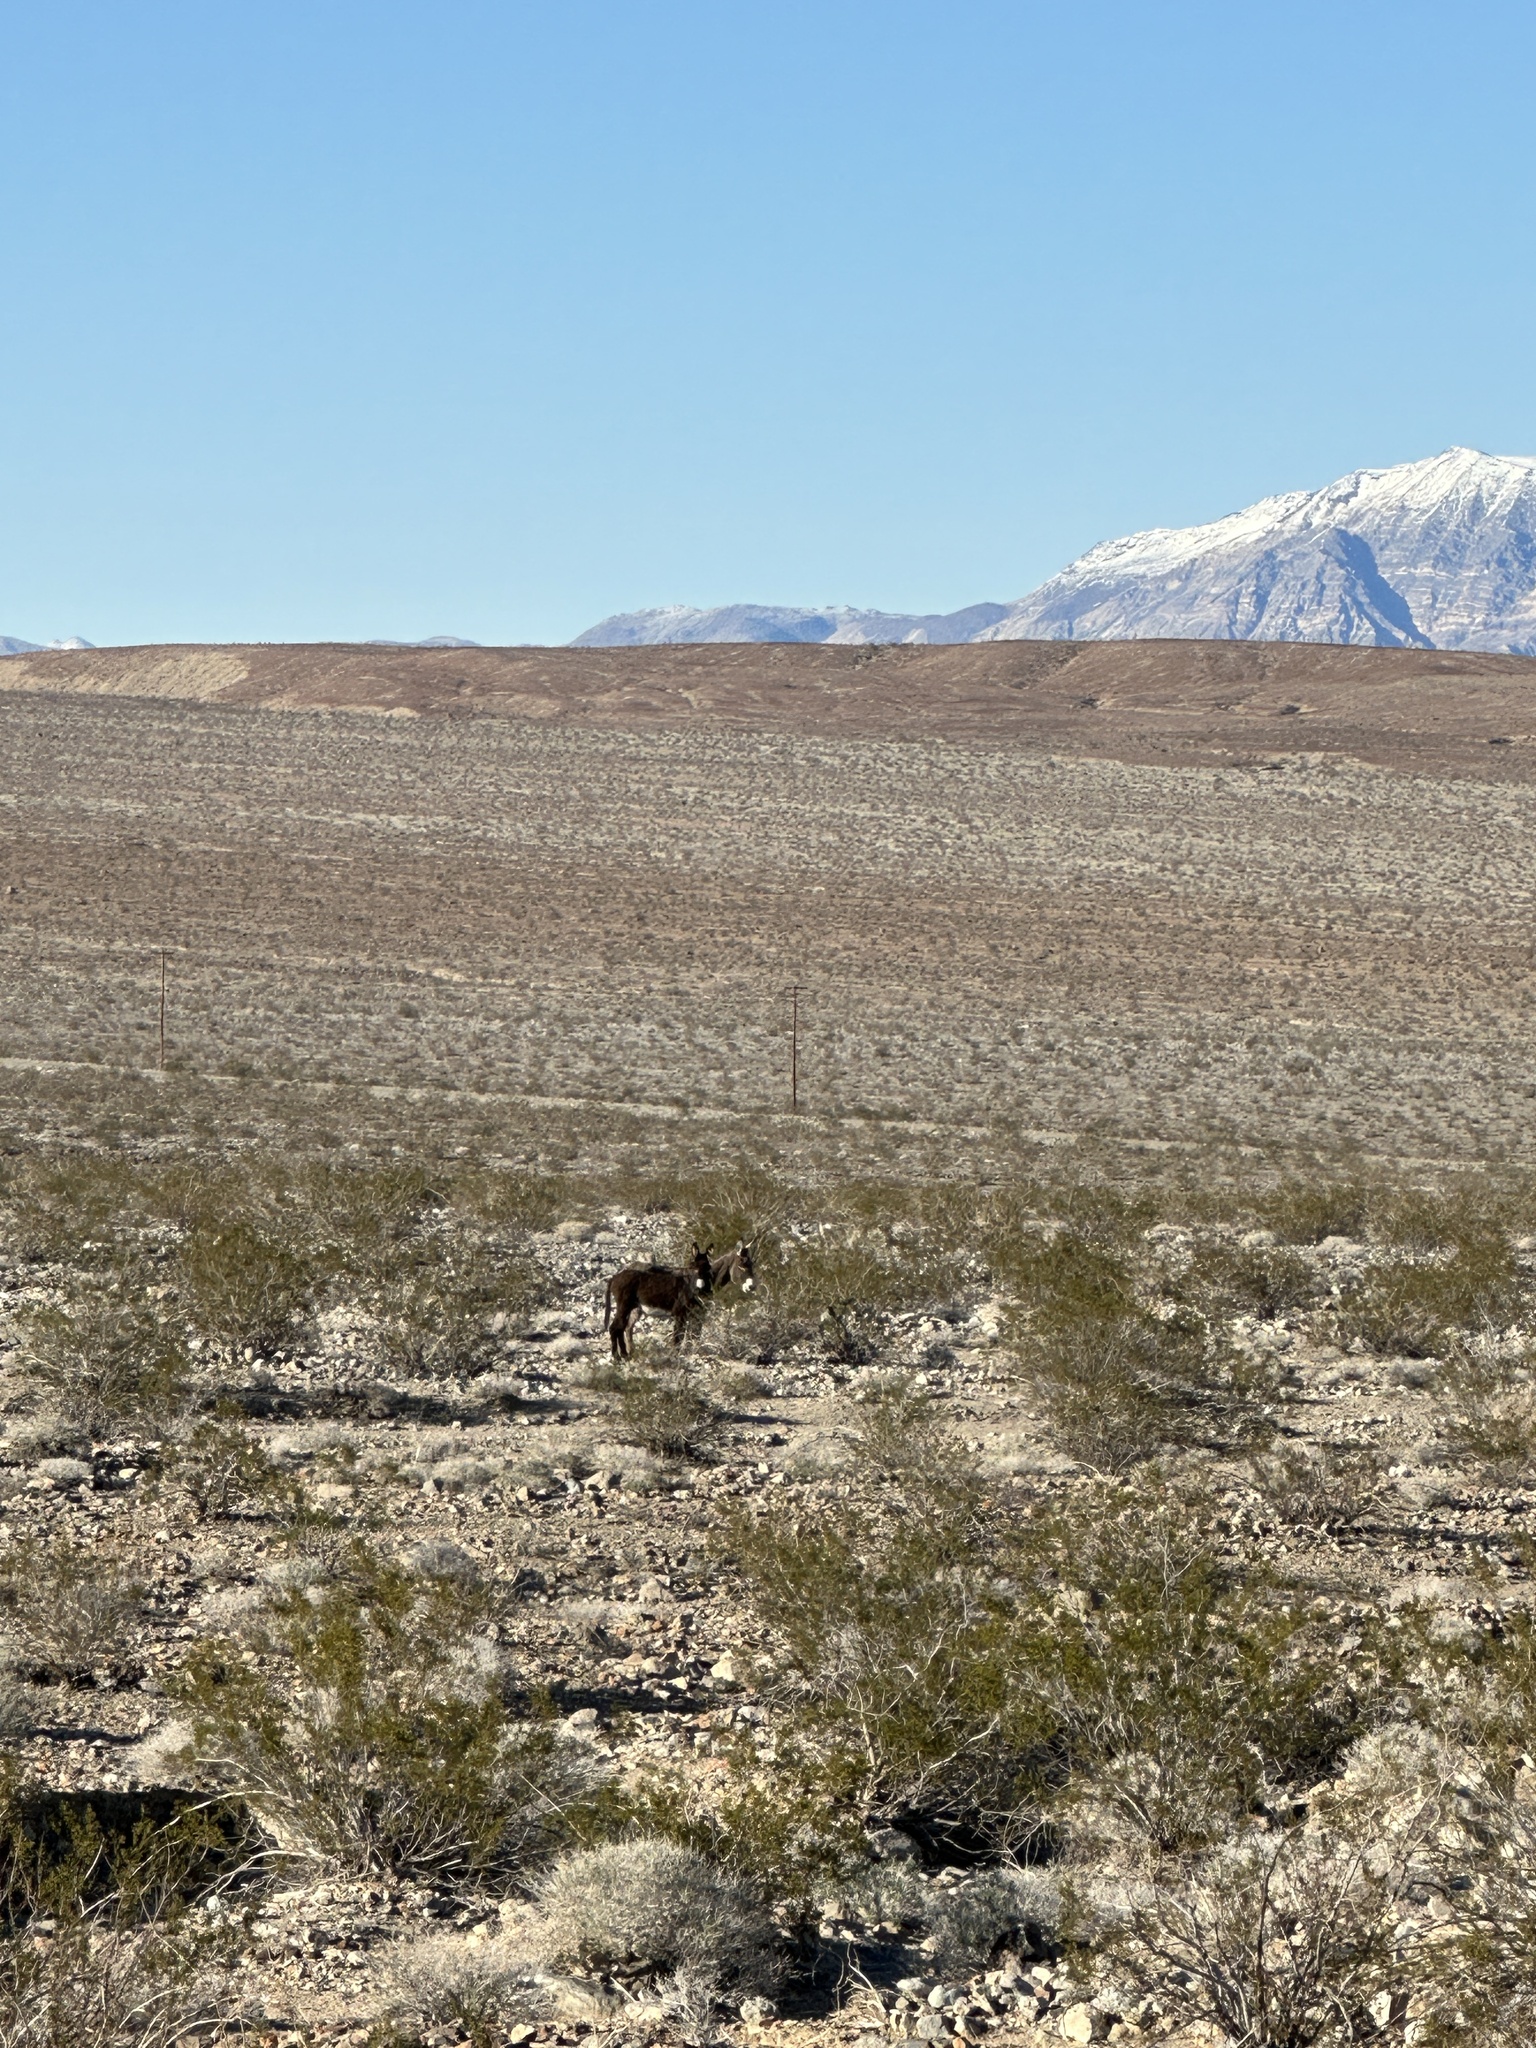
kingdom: Animalia
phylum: Chordata
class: Mammalia
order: Perissodactyla
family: Equidae
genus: Equus
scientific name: Equus asinus
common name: Ass
